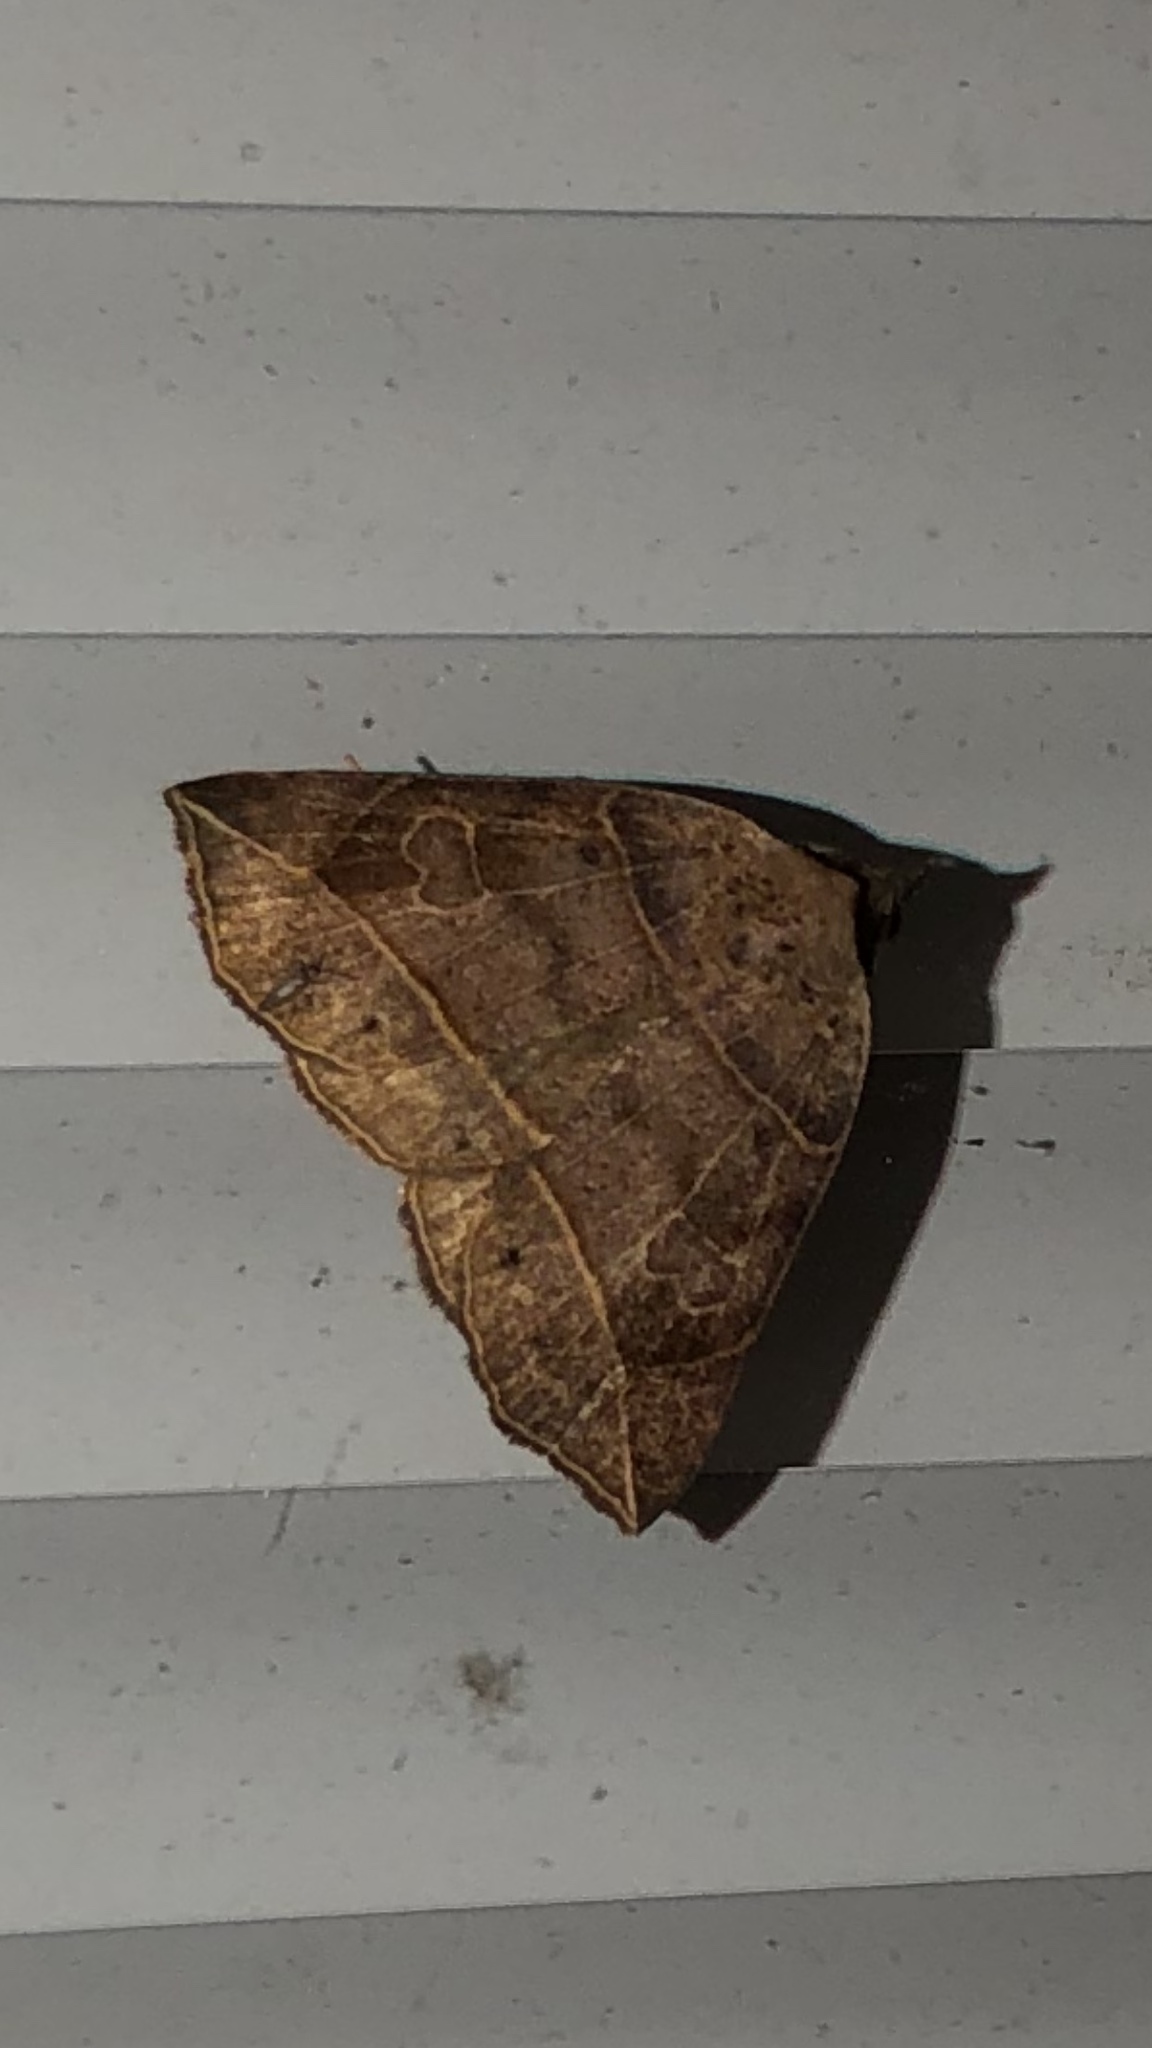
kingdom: Animalia
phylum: Arthropoda
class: Insecta
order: Lepidoptera
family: Erebidae
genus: Isogona
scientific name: Isogona tenuis
